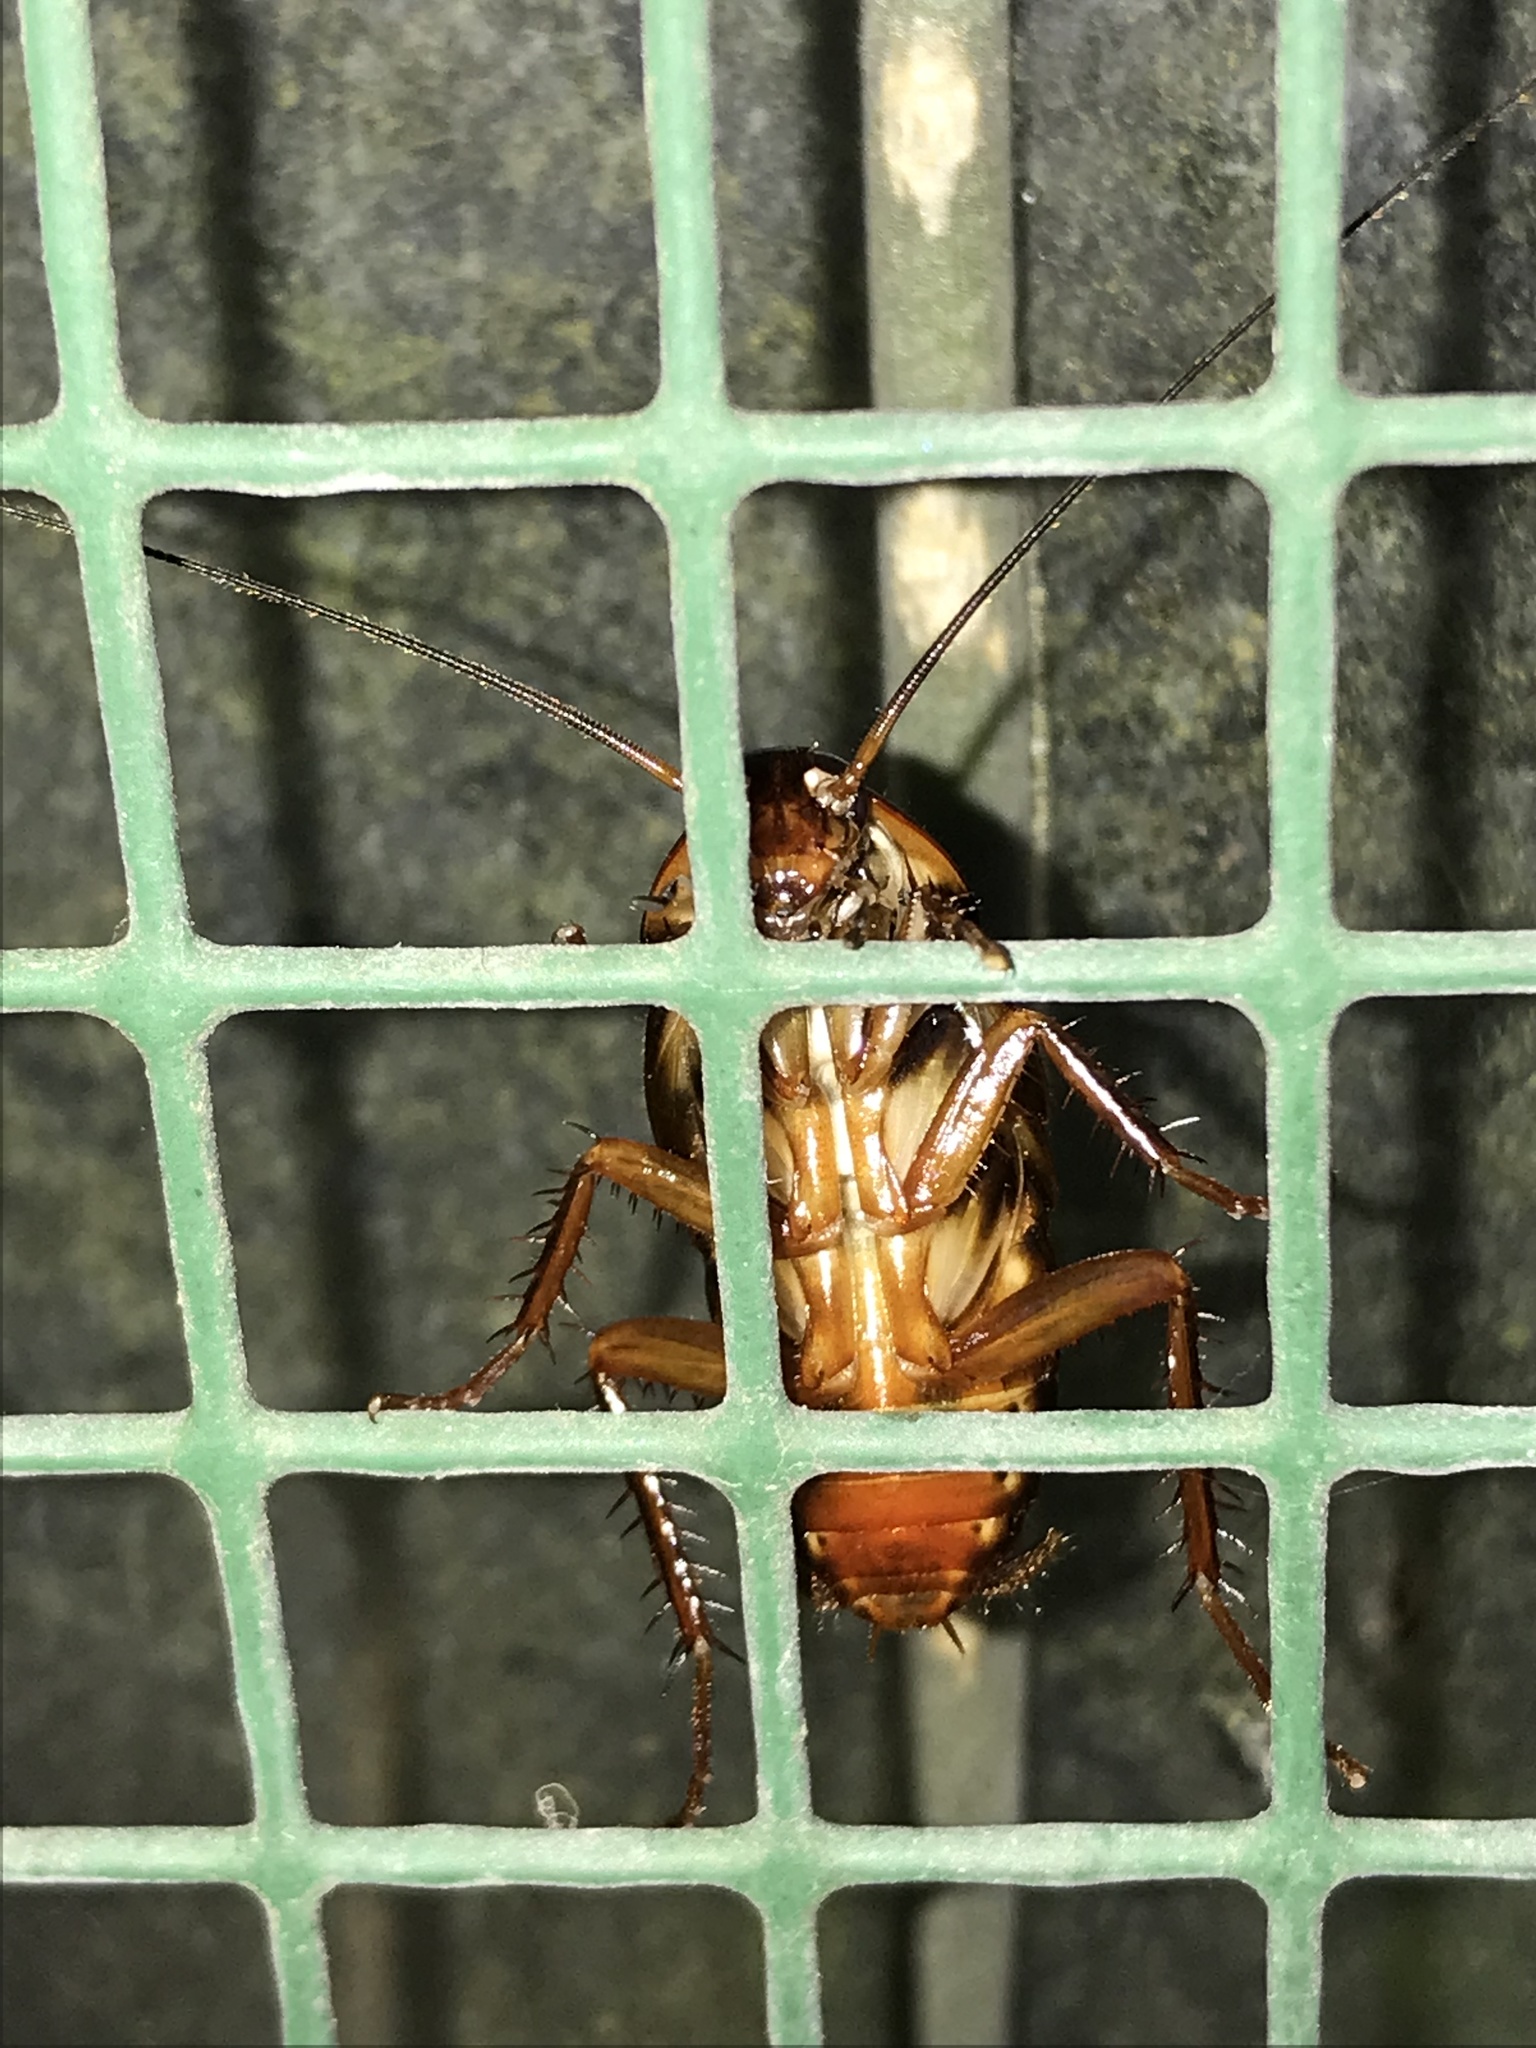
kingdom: Animalia
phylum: Arthropoda
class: Insecta
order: Blattodea
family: Blattidae
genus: Periplaneta
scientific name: Periplaneta australasiae
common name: Australian cockroach
